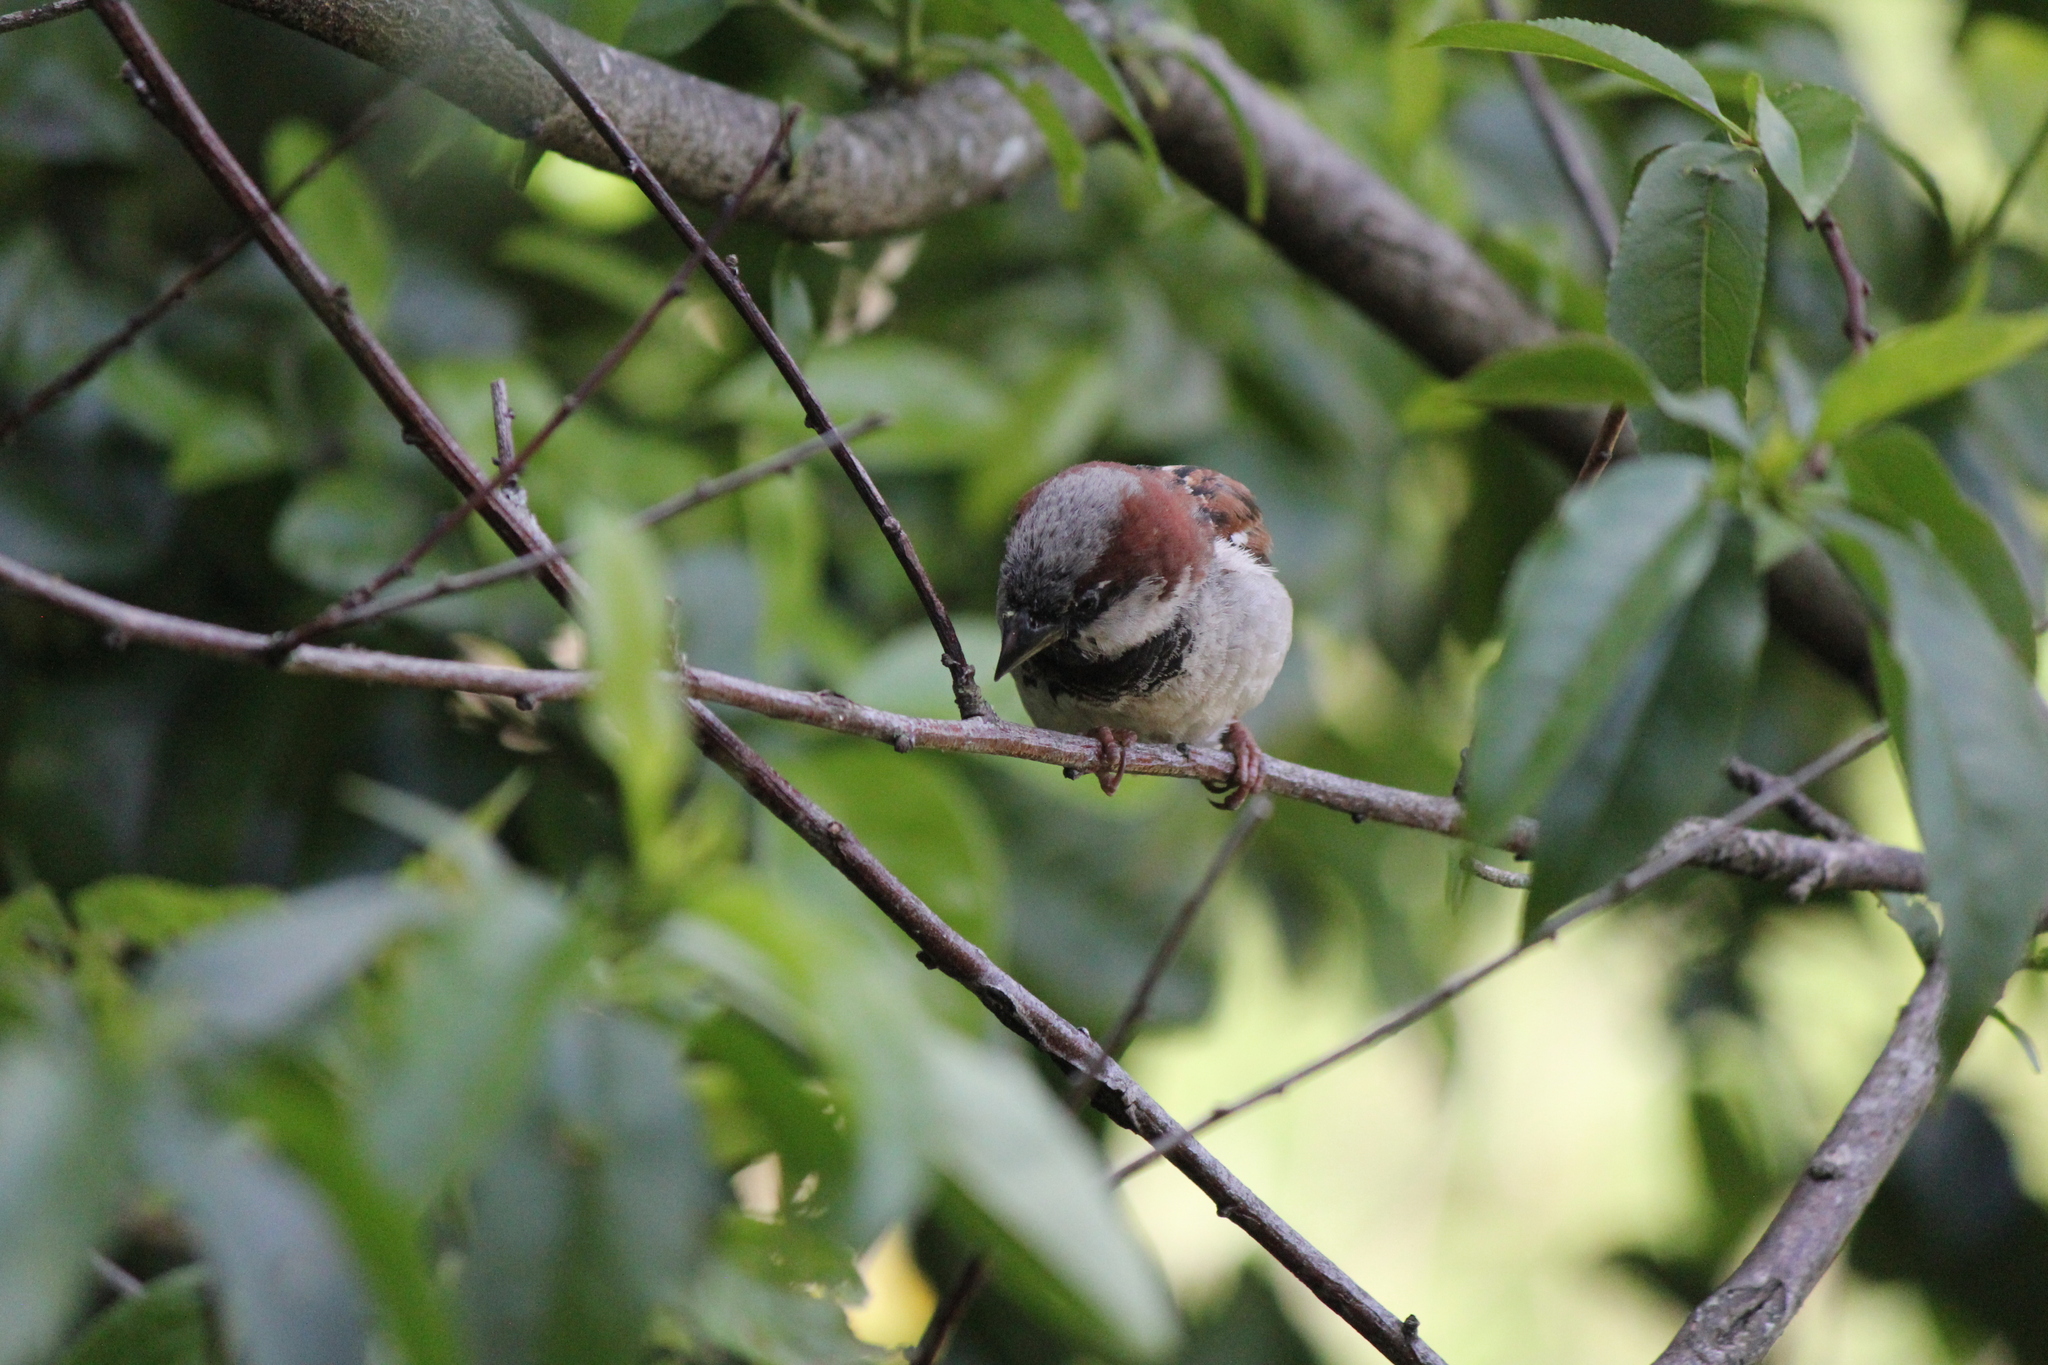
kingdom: Animalia
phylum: Chordata
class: Aves
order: Passeriformes
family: Passeridae
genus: Passer
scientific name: Passer domesticus
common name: House sparrow
